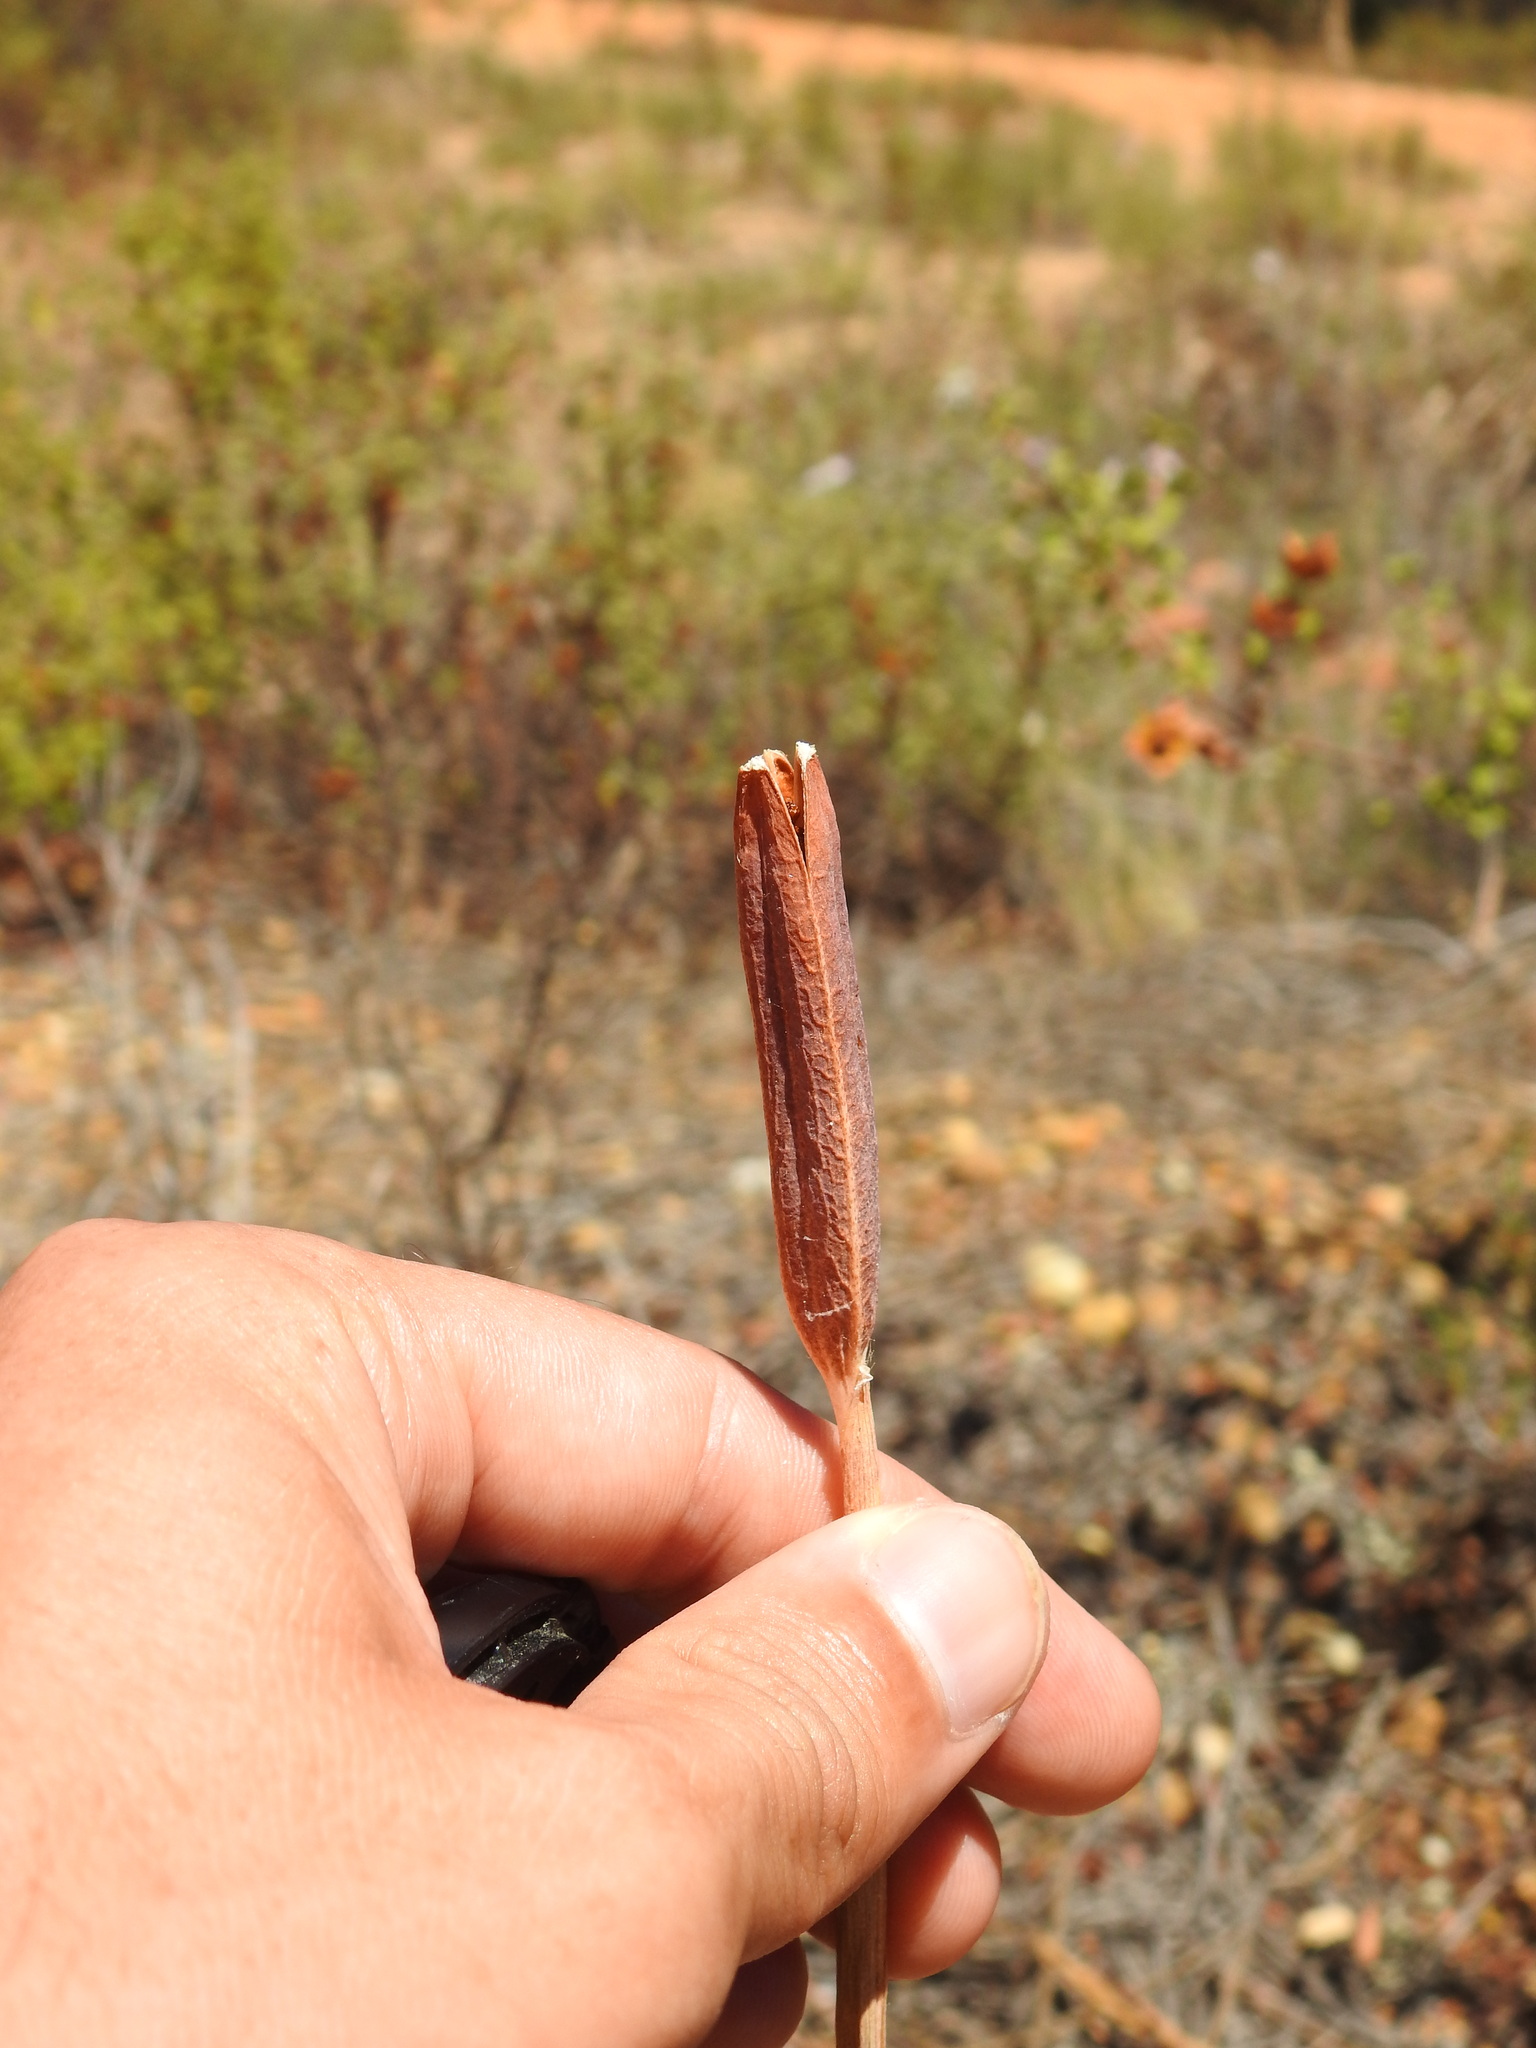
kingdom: Plantae
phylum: Tracheophyta
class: Liliopsida
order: Asparagales
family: Iridaceae
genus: Iris
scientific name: Iris xiphium
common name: Spanish iris
